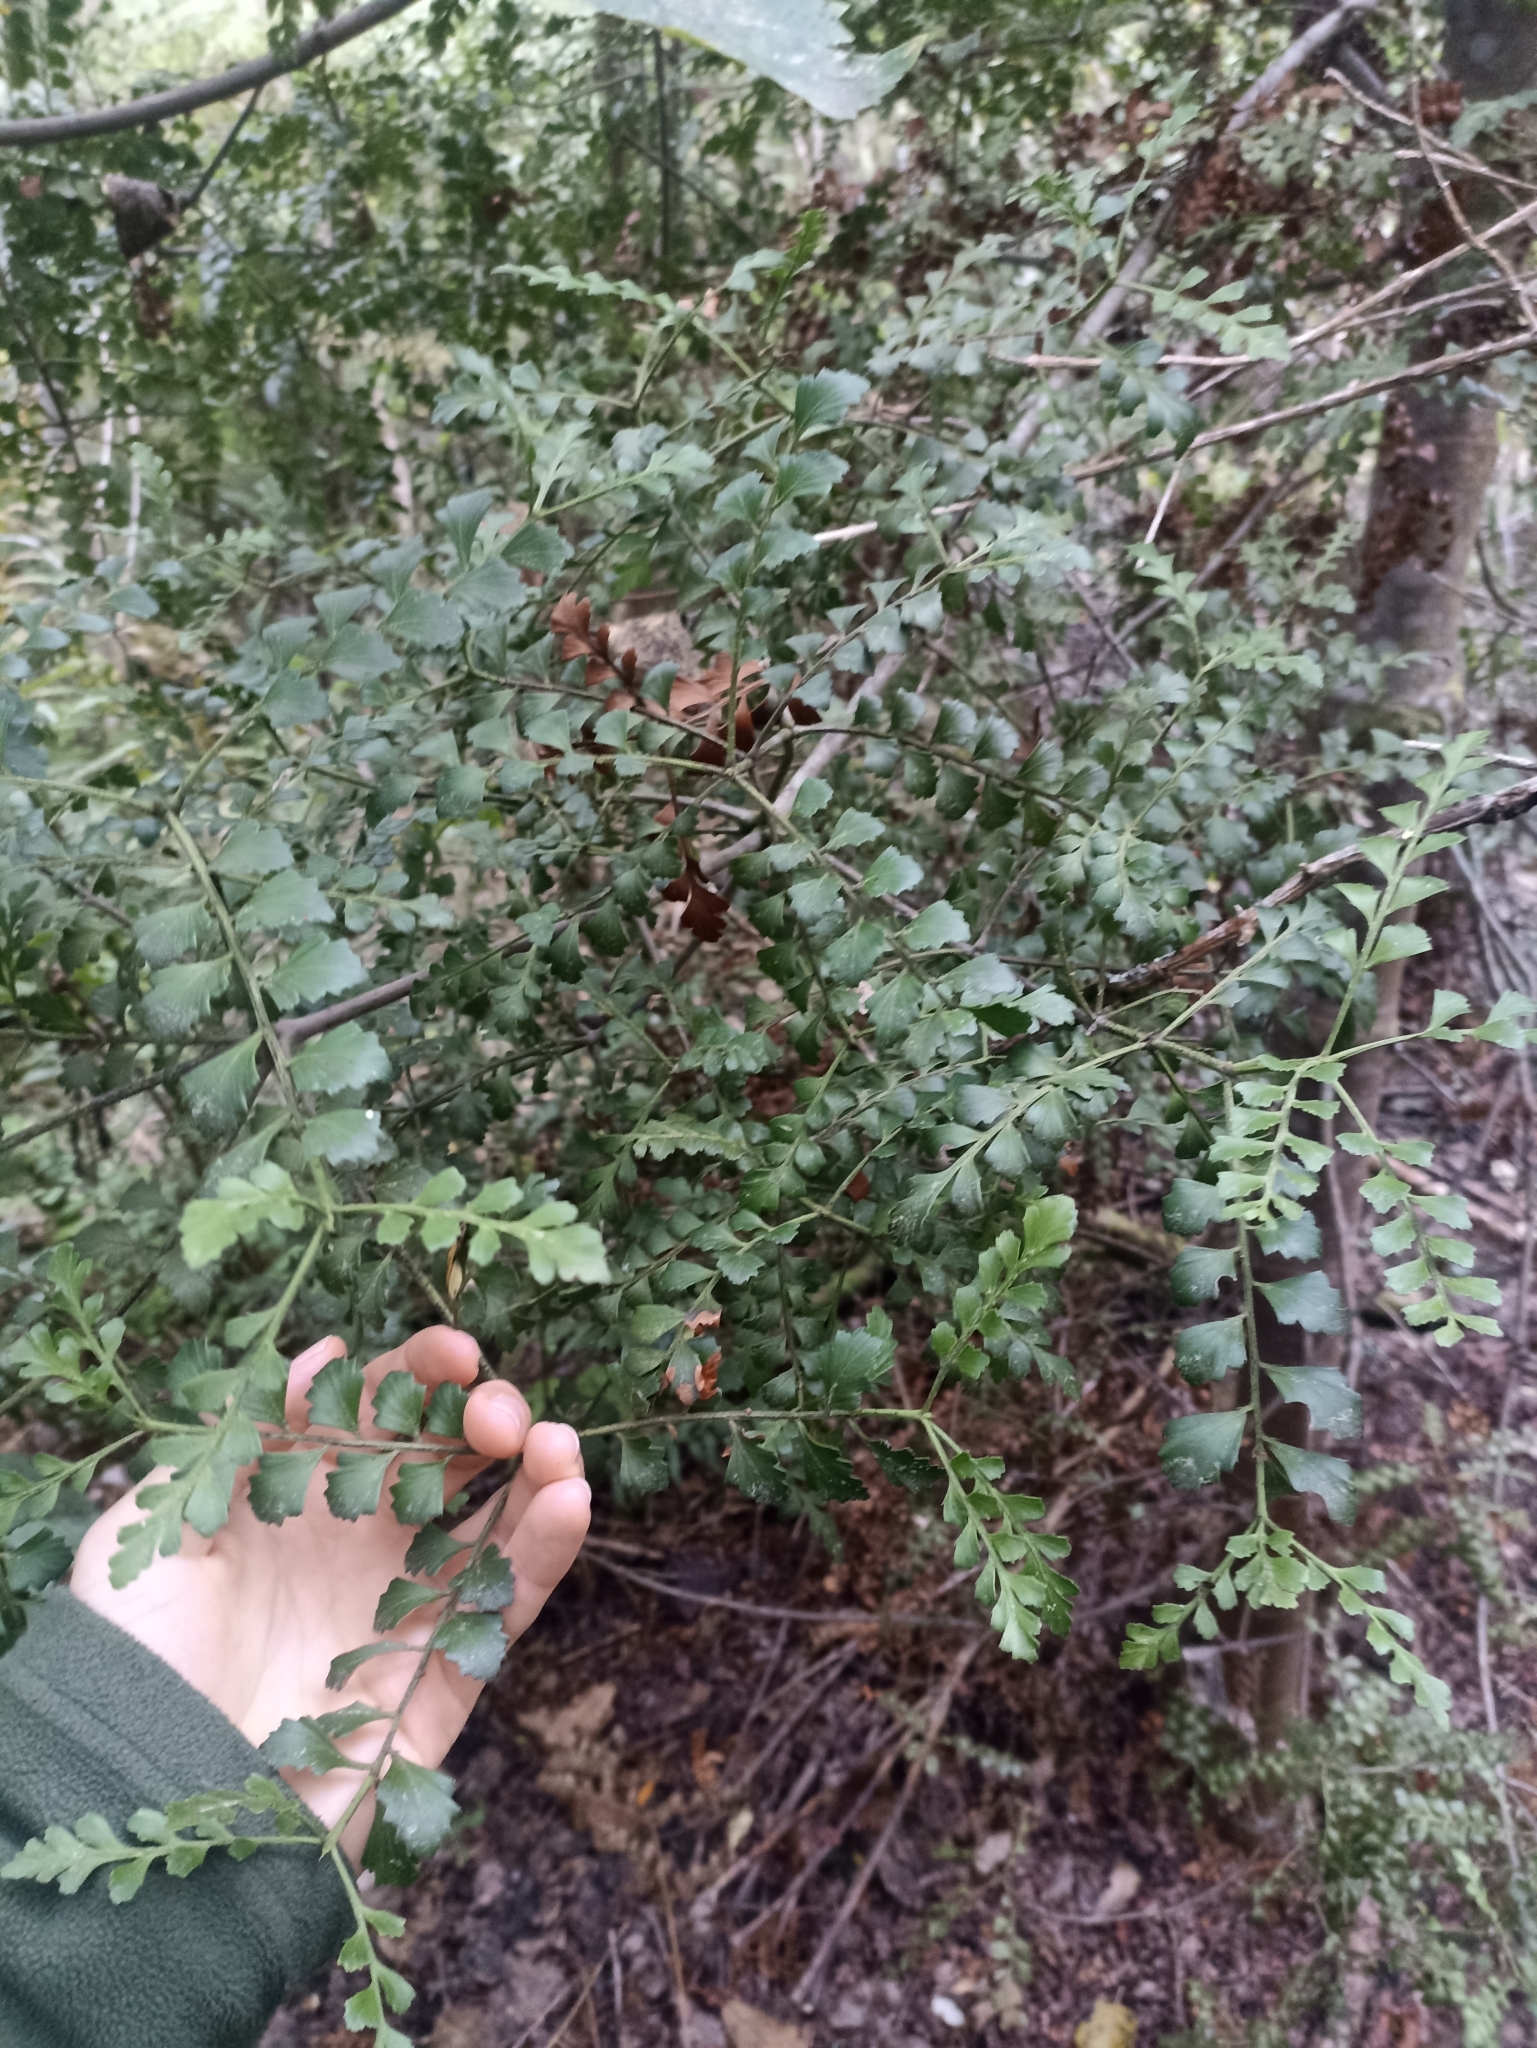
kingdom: Plantae
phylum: Tracheophyta
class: Pinopsida
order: Pinales
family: Phyllocladaceae
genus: Phyllocladus
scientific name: Phyllocladus trichomanoides
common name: Celery pine
